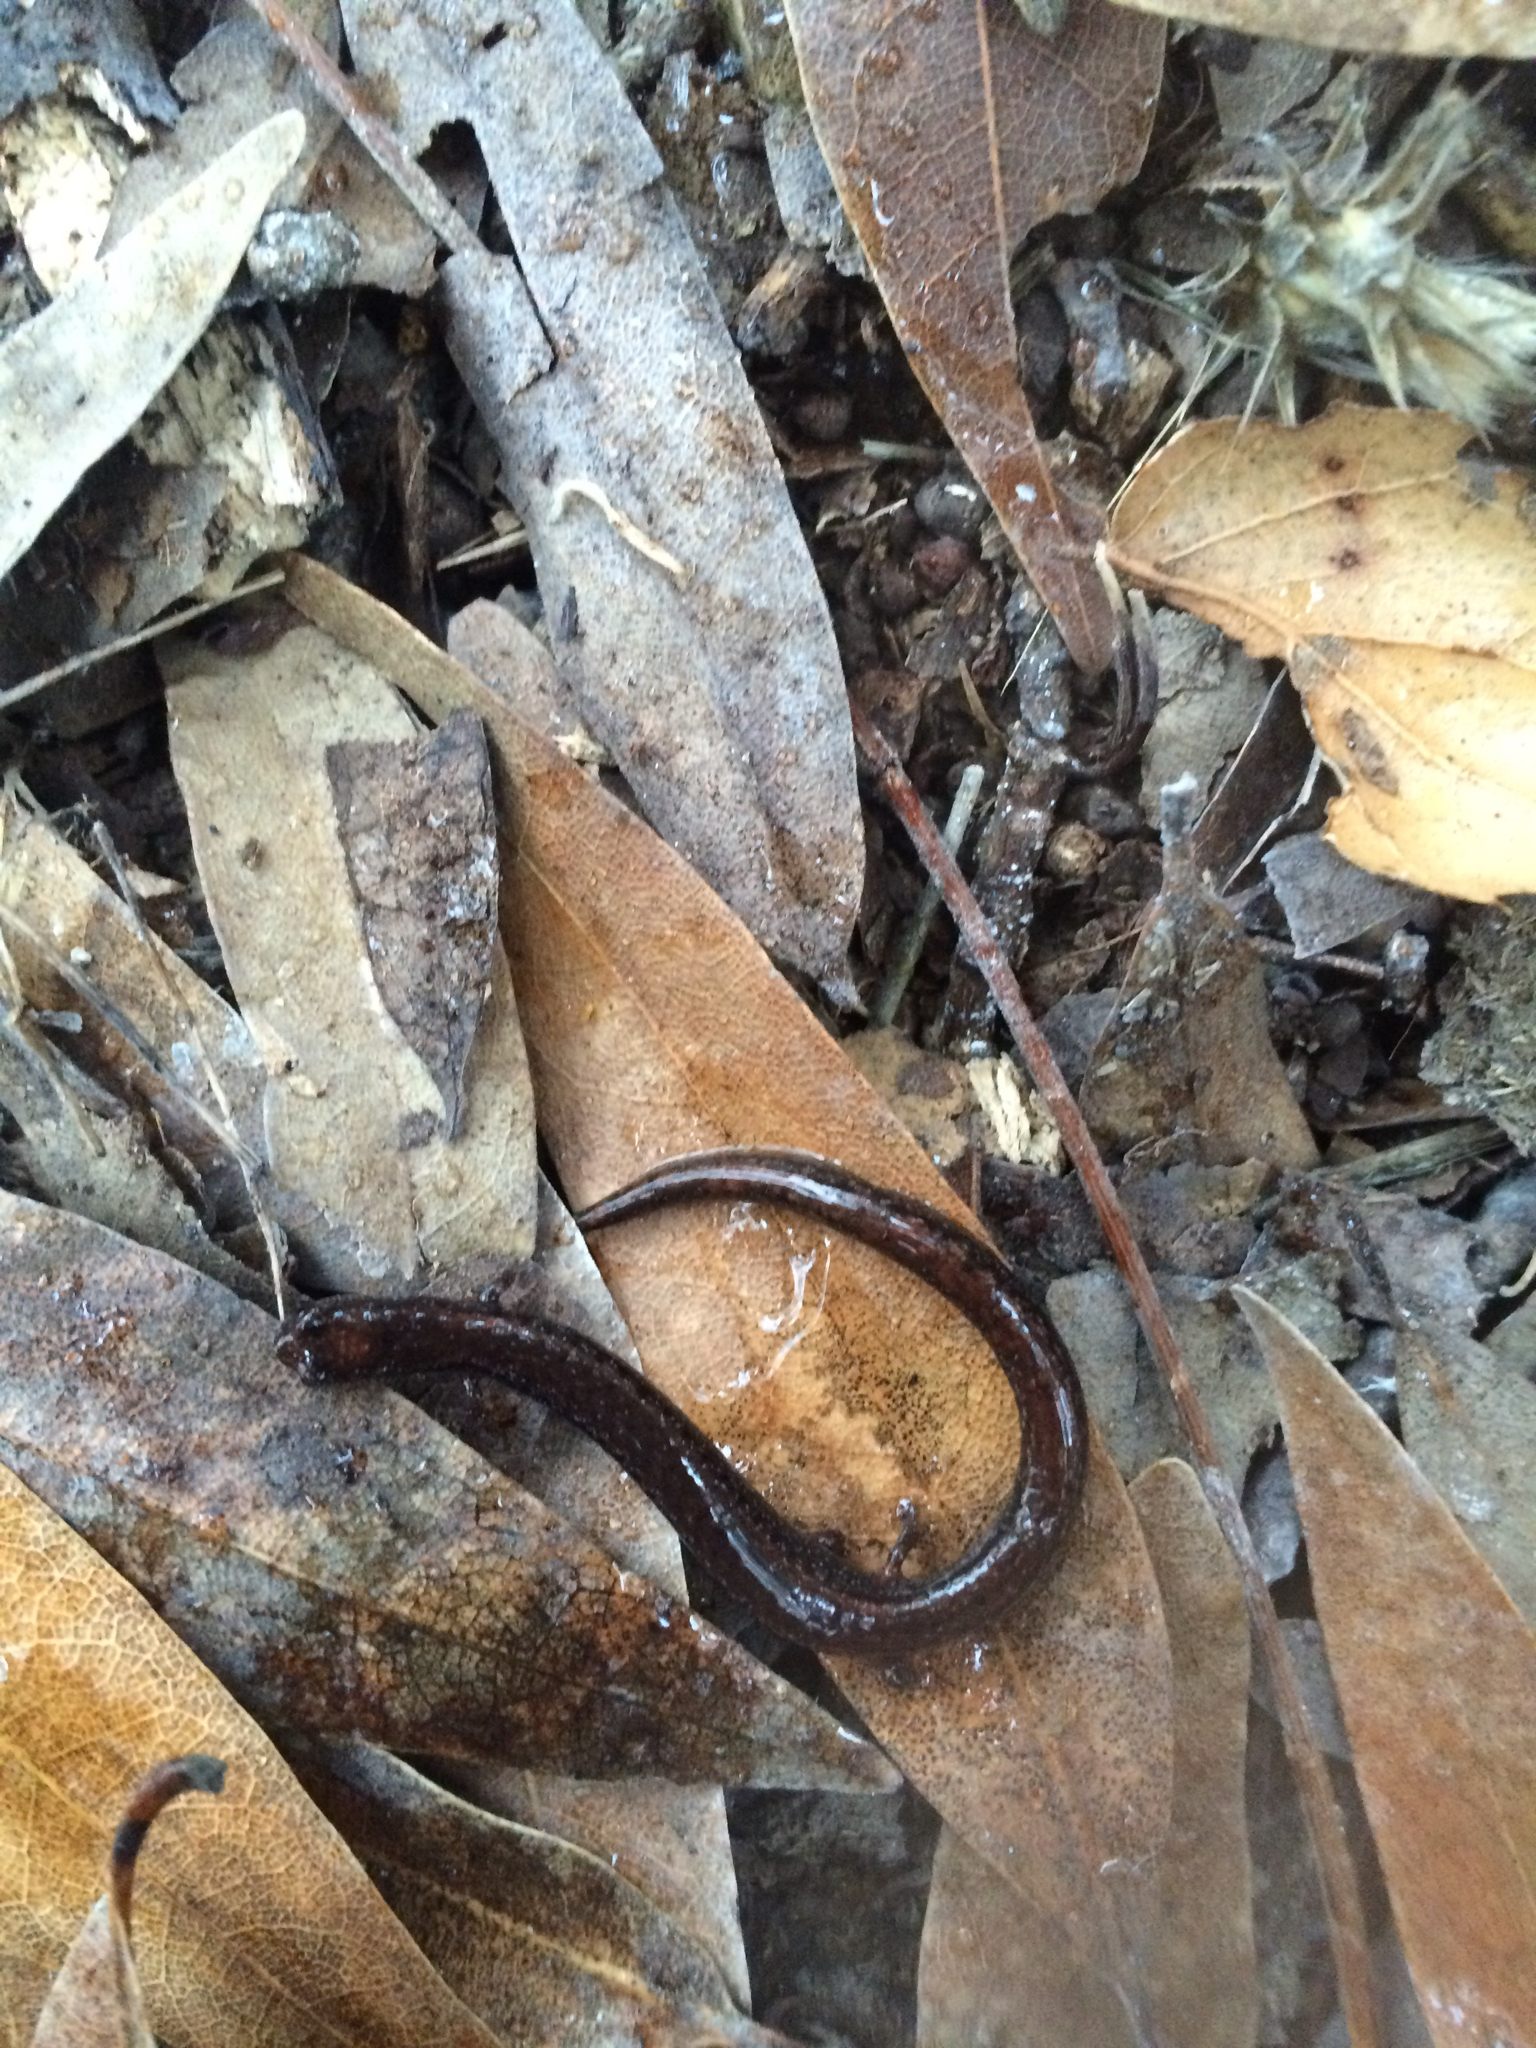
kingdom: Animalia
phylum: Chordata
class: Amphibia
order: Caudata
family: Plethodontidae
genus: Batrachoseps
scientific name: Batrachoseps attenuatus
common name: California slender salamander
